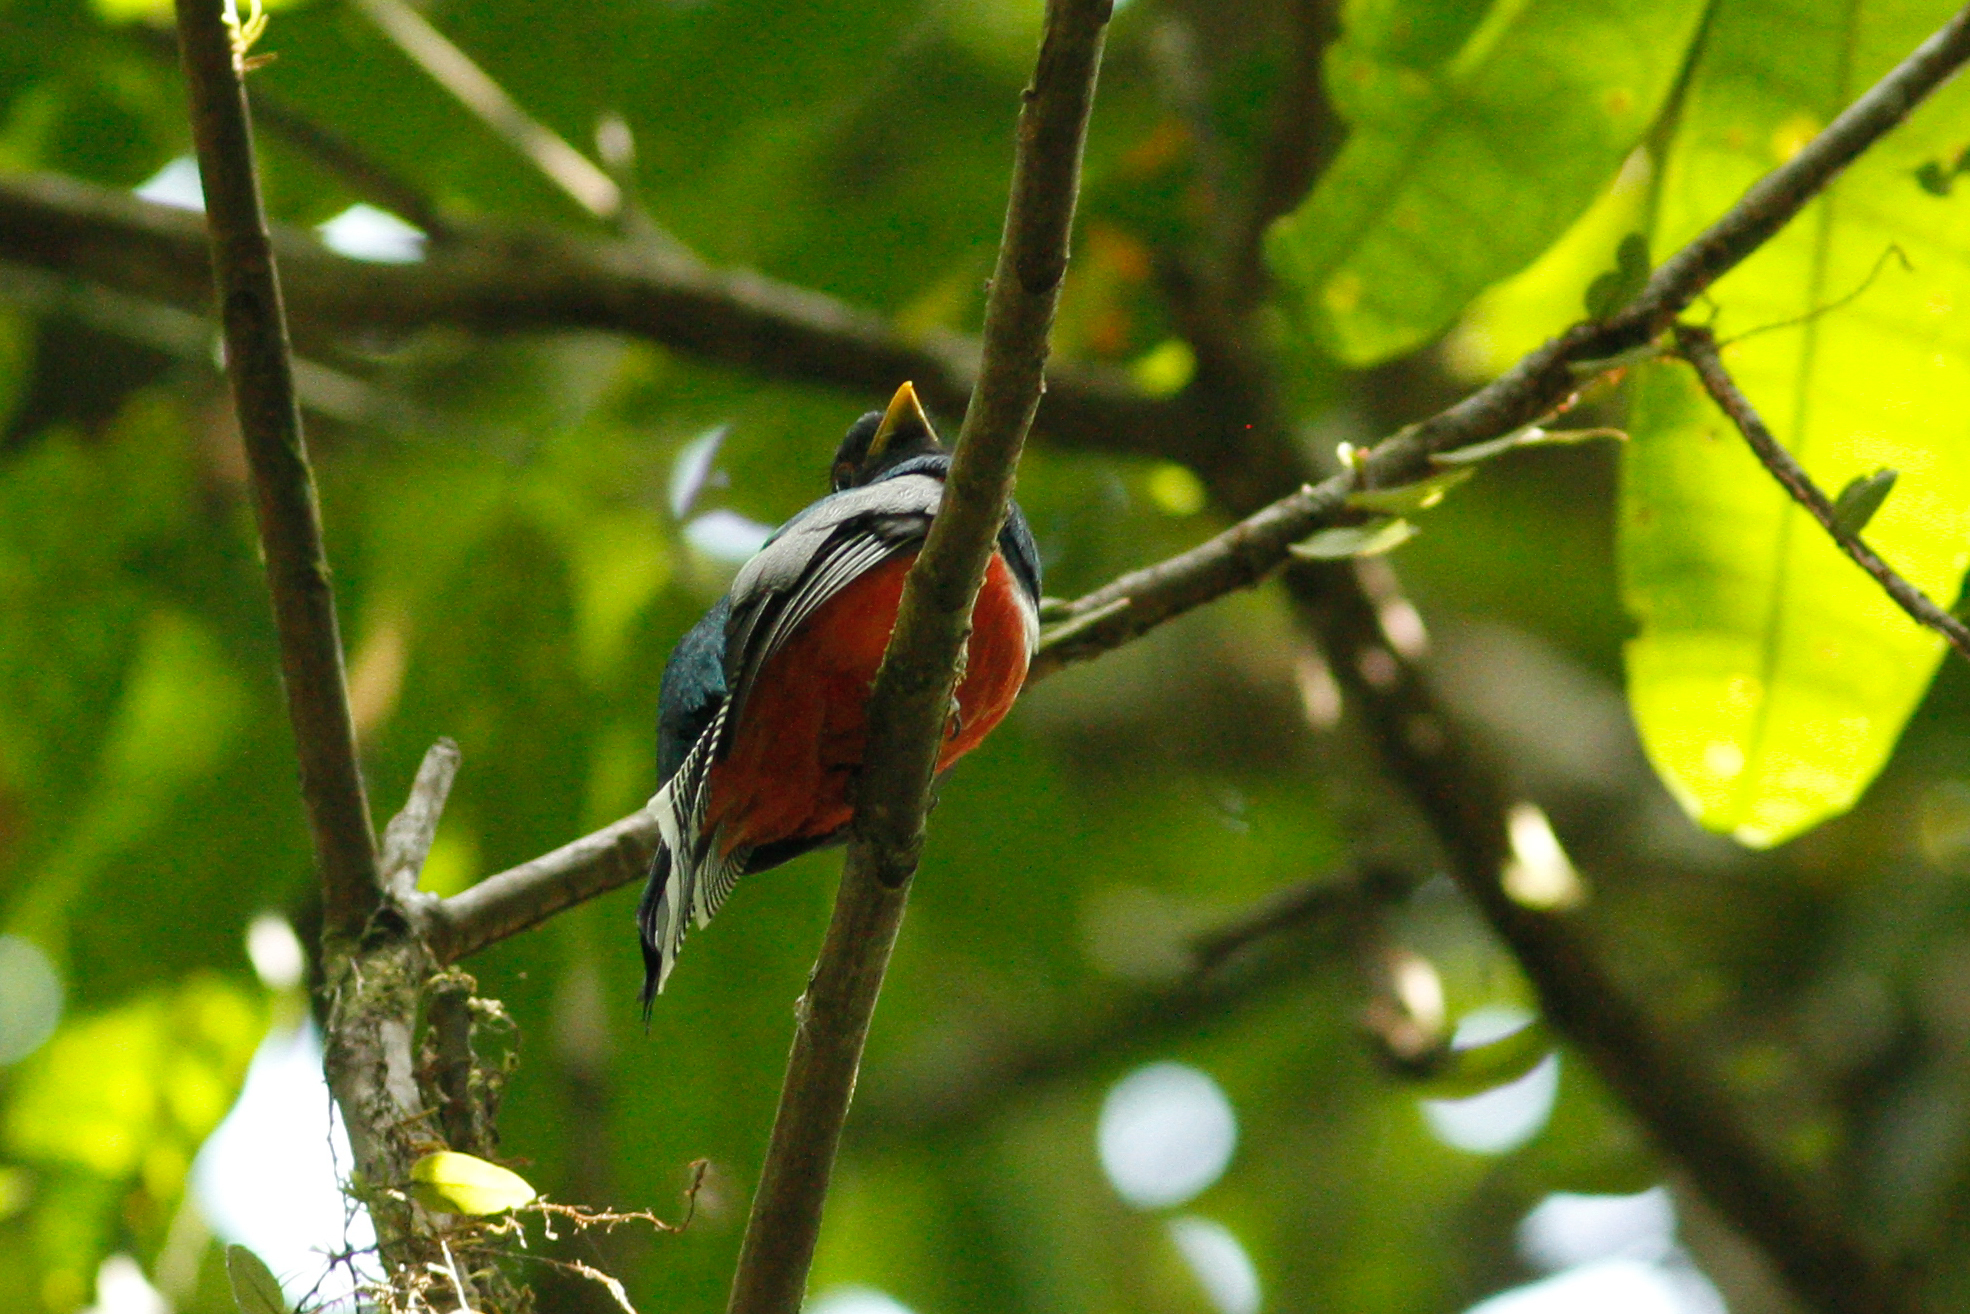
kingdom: Animalia
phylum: Chordata
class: Aves
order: Trogoniformes
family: Trogonidae
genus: Trogon
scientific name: Trogon collaris
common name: Collared trogon
